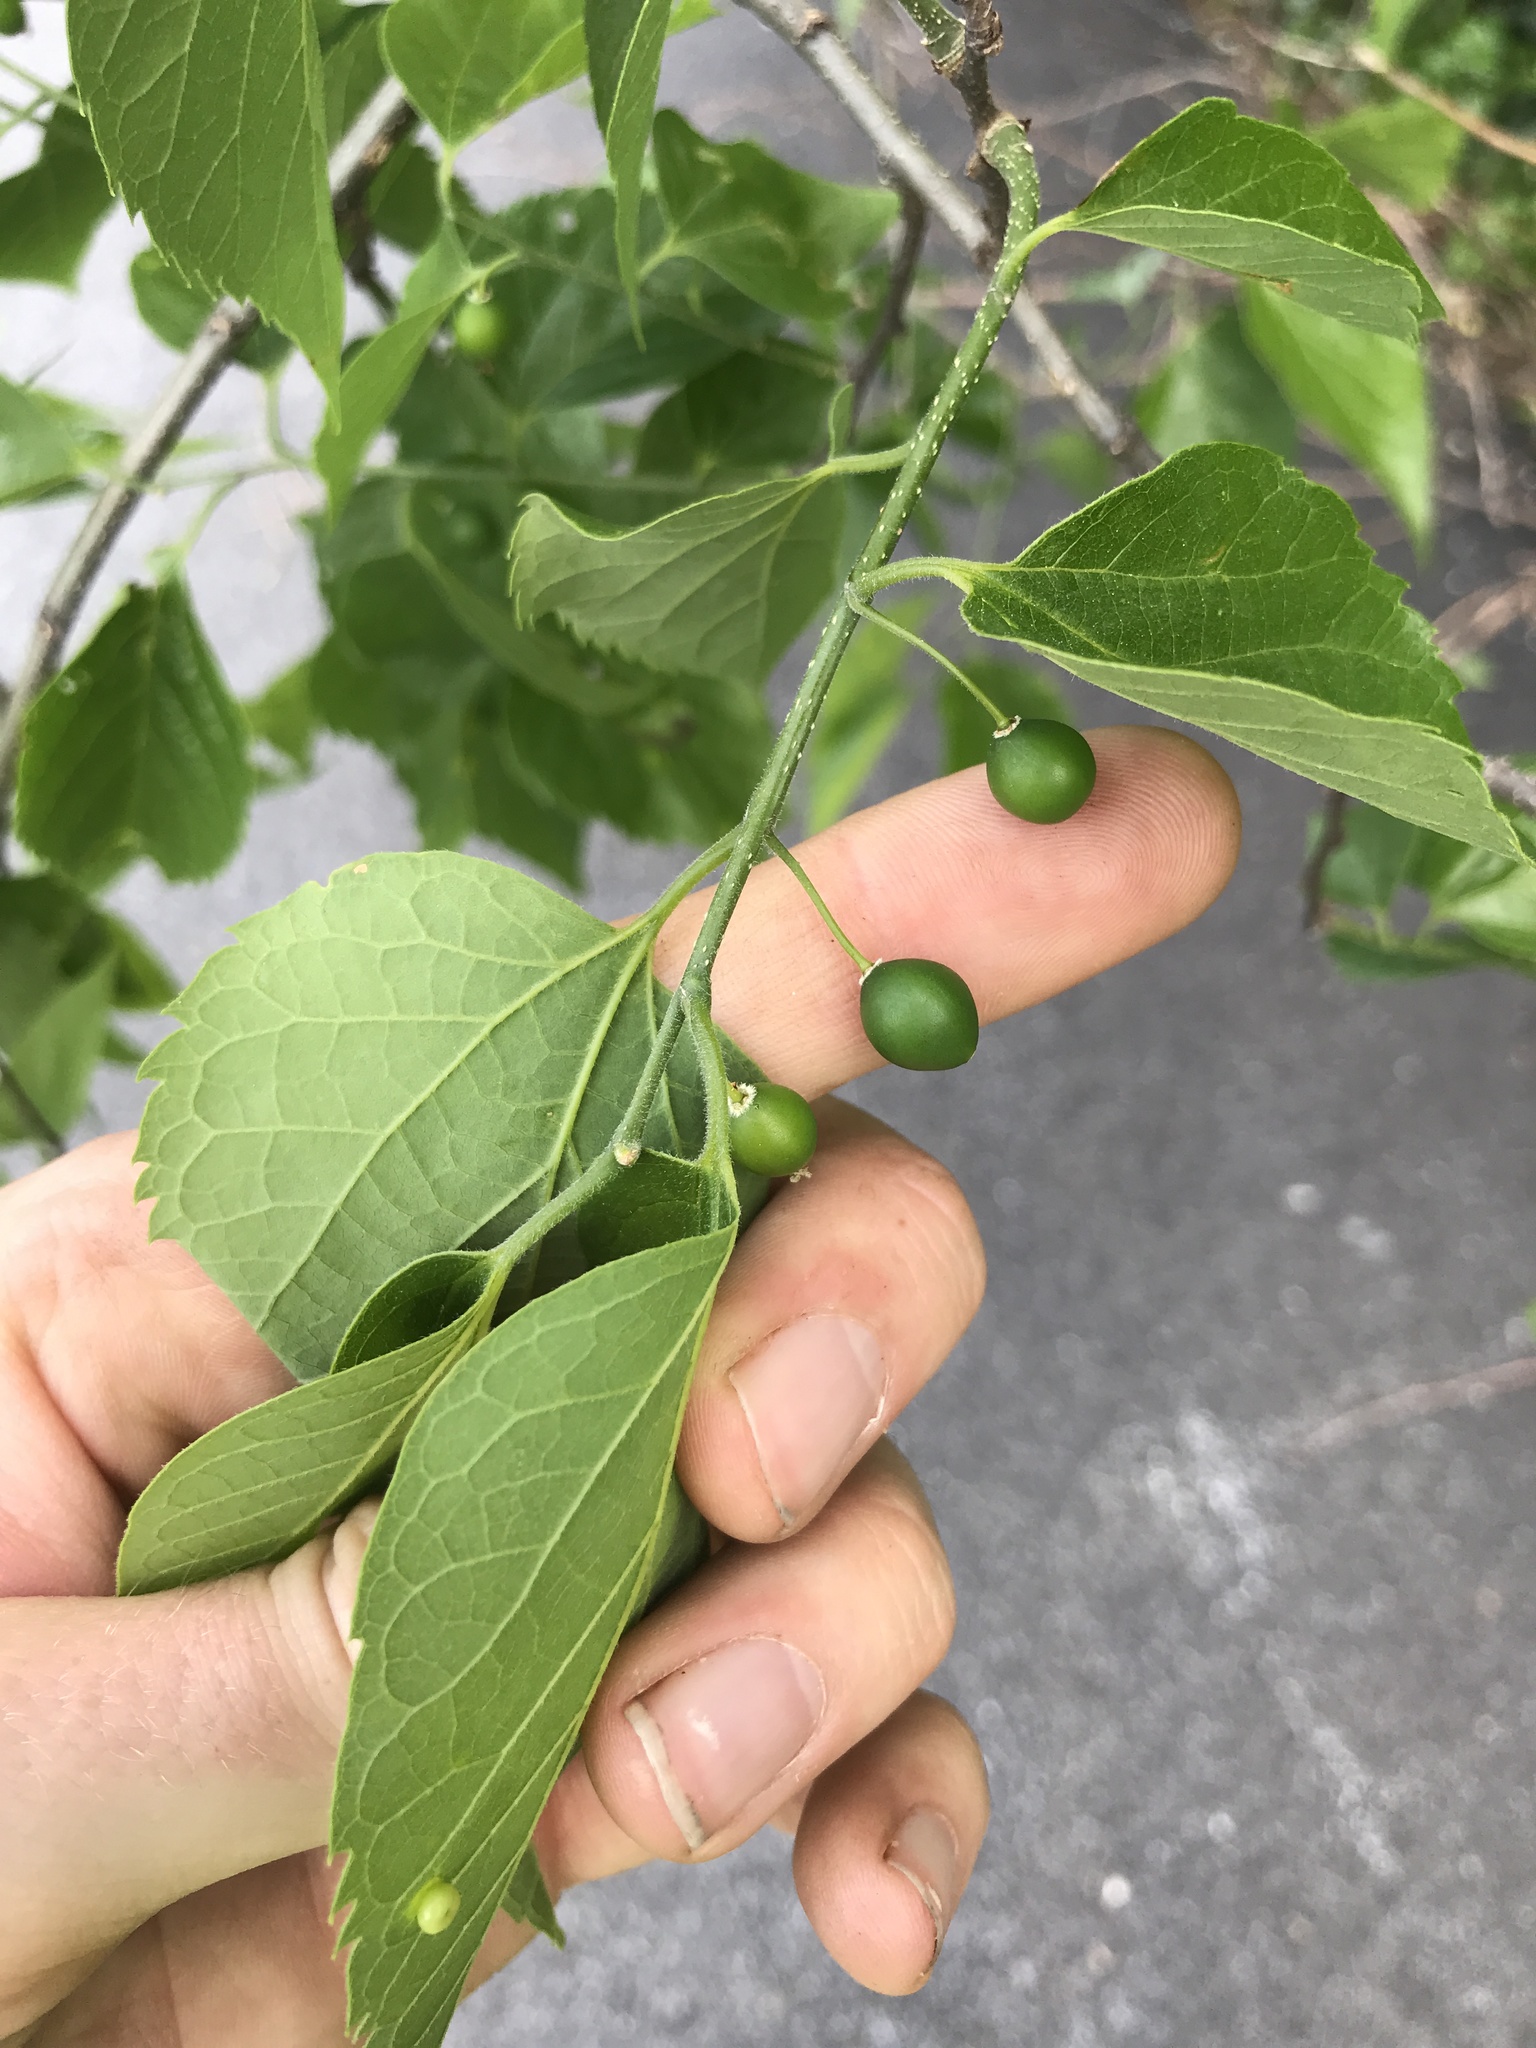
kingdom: Plantae
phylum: Tracheophyta
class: Magnoliopsida
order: Rosales
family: Cannabaceae
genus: Celtis
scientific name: Celtis occidentalis
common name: Common hackberry
